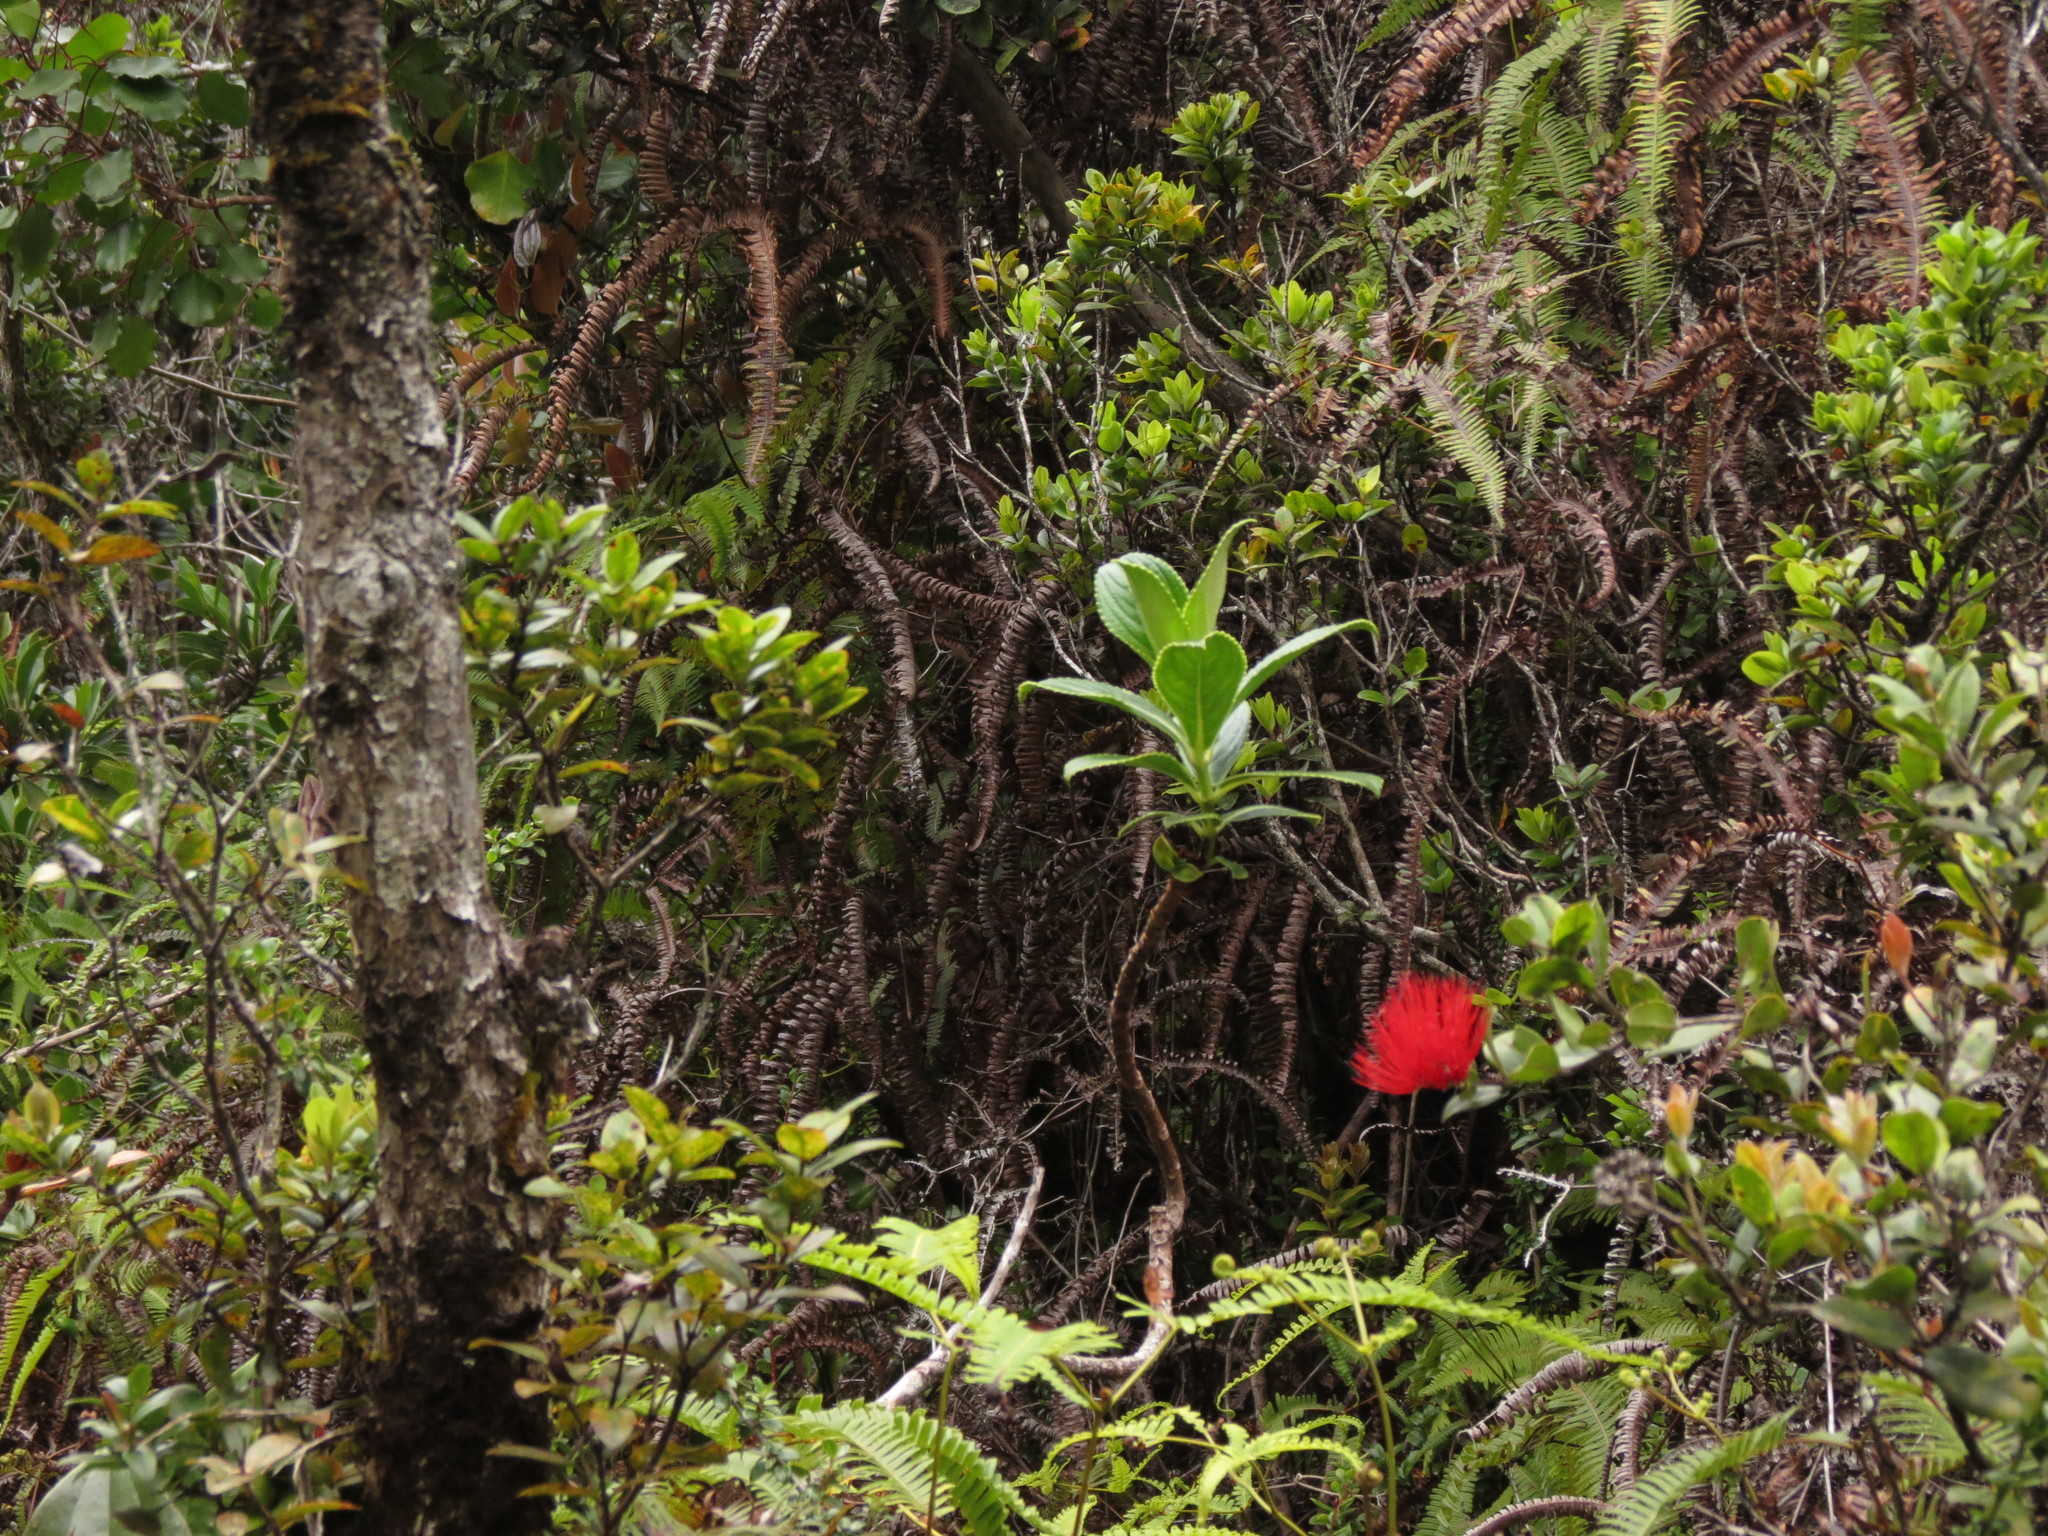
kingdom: Plantae
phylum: Tracheophyta
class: Magnoliopsida
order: Myrtales
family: Myrtaceae
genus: Metrosideros
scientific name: Metrosideros polymorpha
